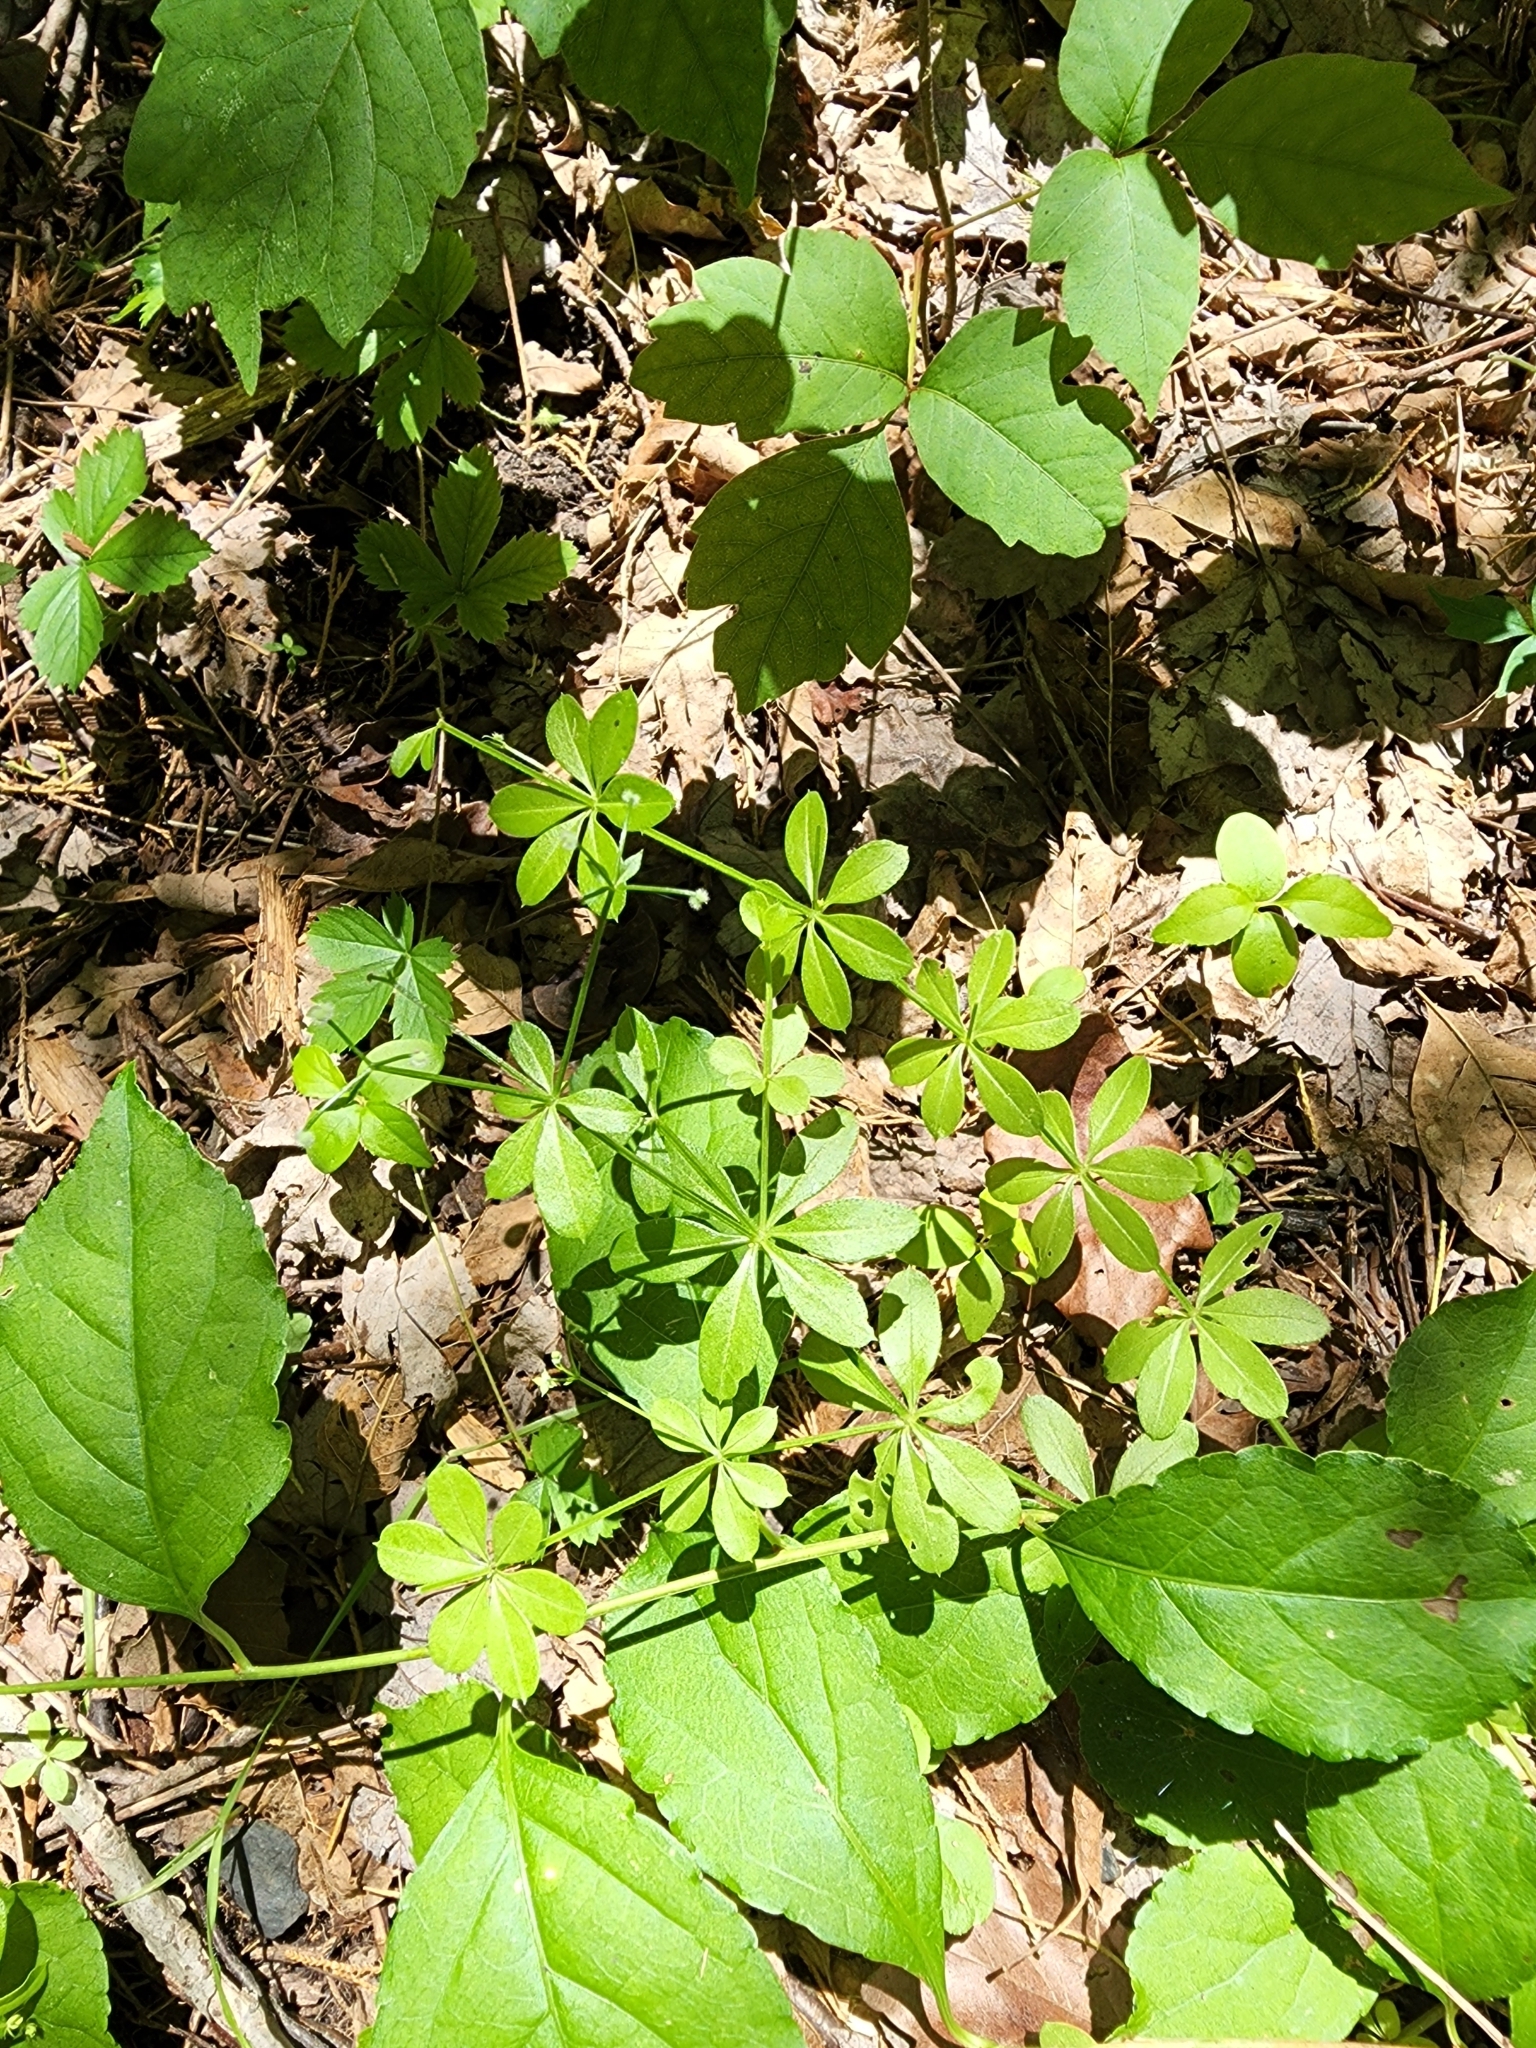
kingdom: Plantae
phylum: Tracheophyta
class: Magnoliopsida
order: Gentianales
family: Rubiaceae
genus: Galium
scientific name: Galium triflorum
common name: Fragrant bedstraw
